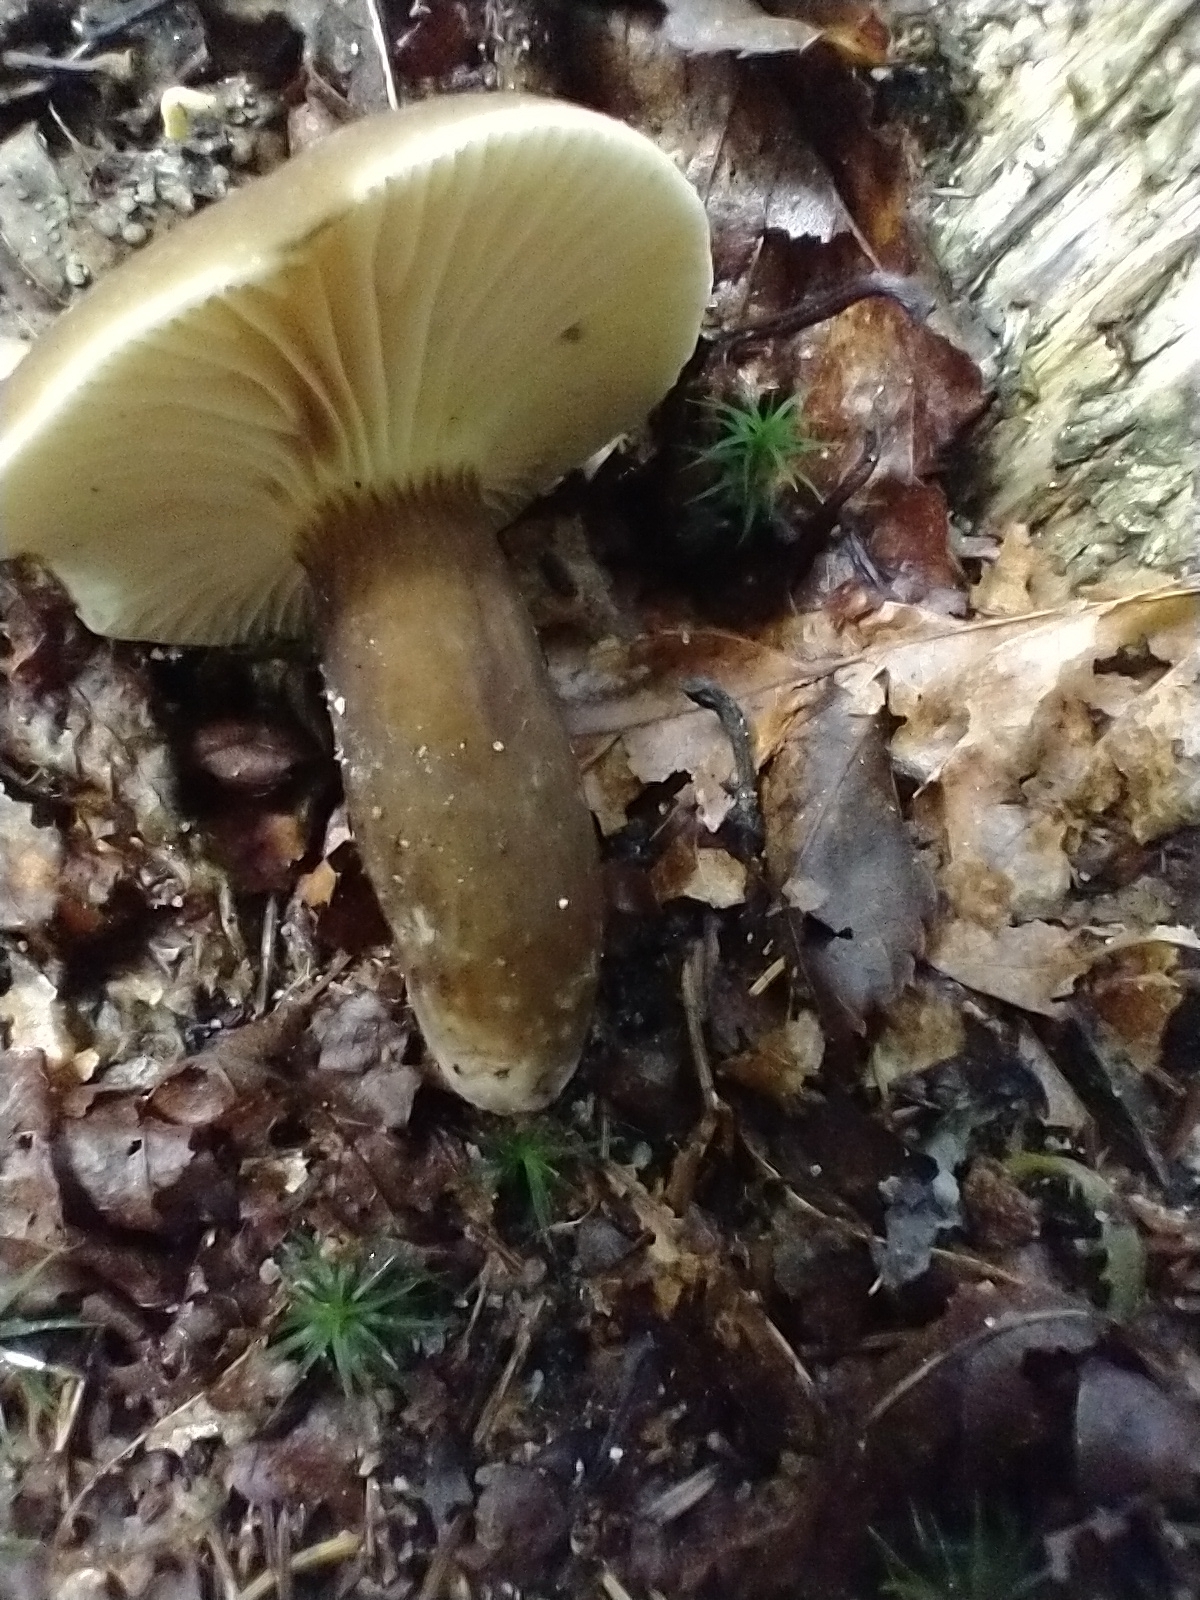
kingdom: Fungi
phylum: Basidiomycota
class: Agaricomycetes
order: Russulales
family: Russulaceae
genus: Lactarius
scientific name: Lactarius lignyotus
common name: Velvet milkcap
